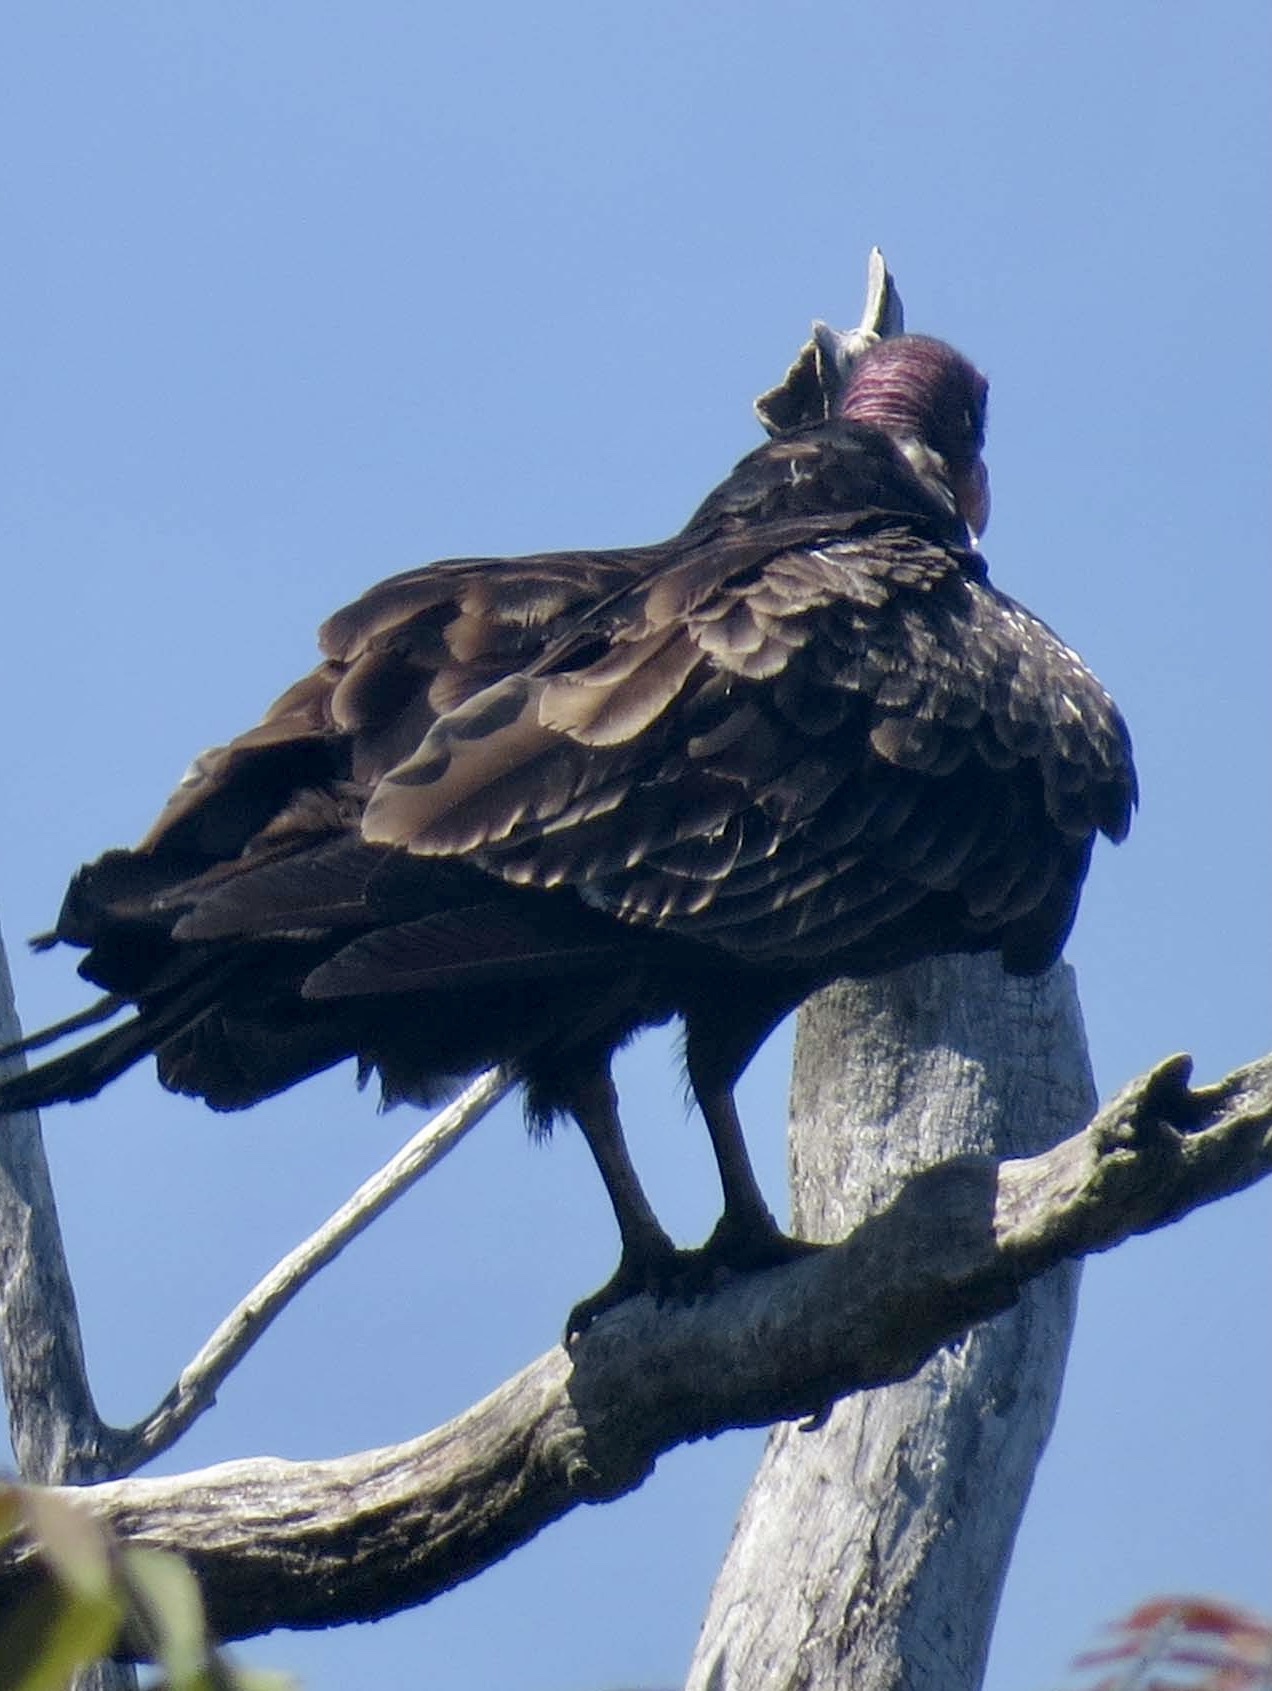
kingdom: Animalia
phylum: Chordata
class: Aves
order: Accipitriformes
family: Cathartidae
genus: Cathartes
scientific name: Cathartes aura
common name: Turkey vulture
